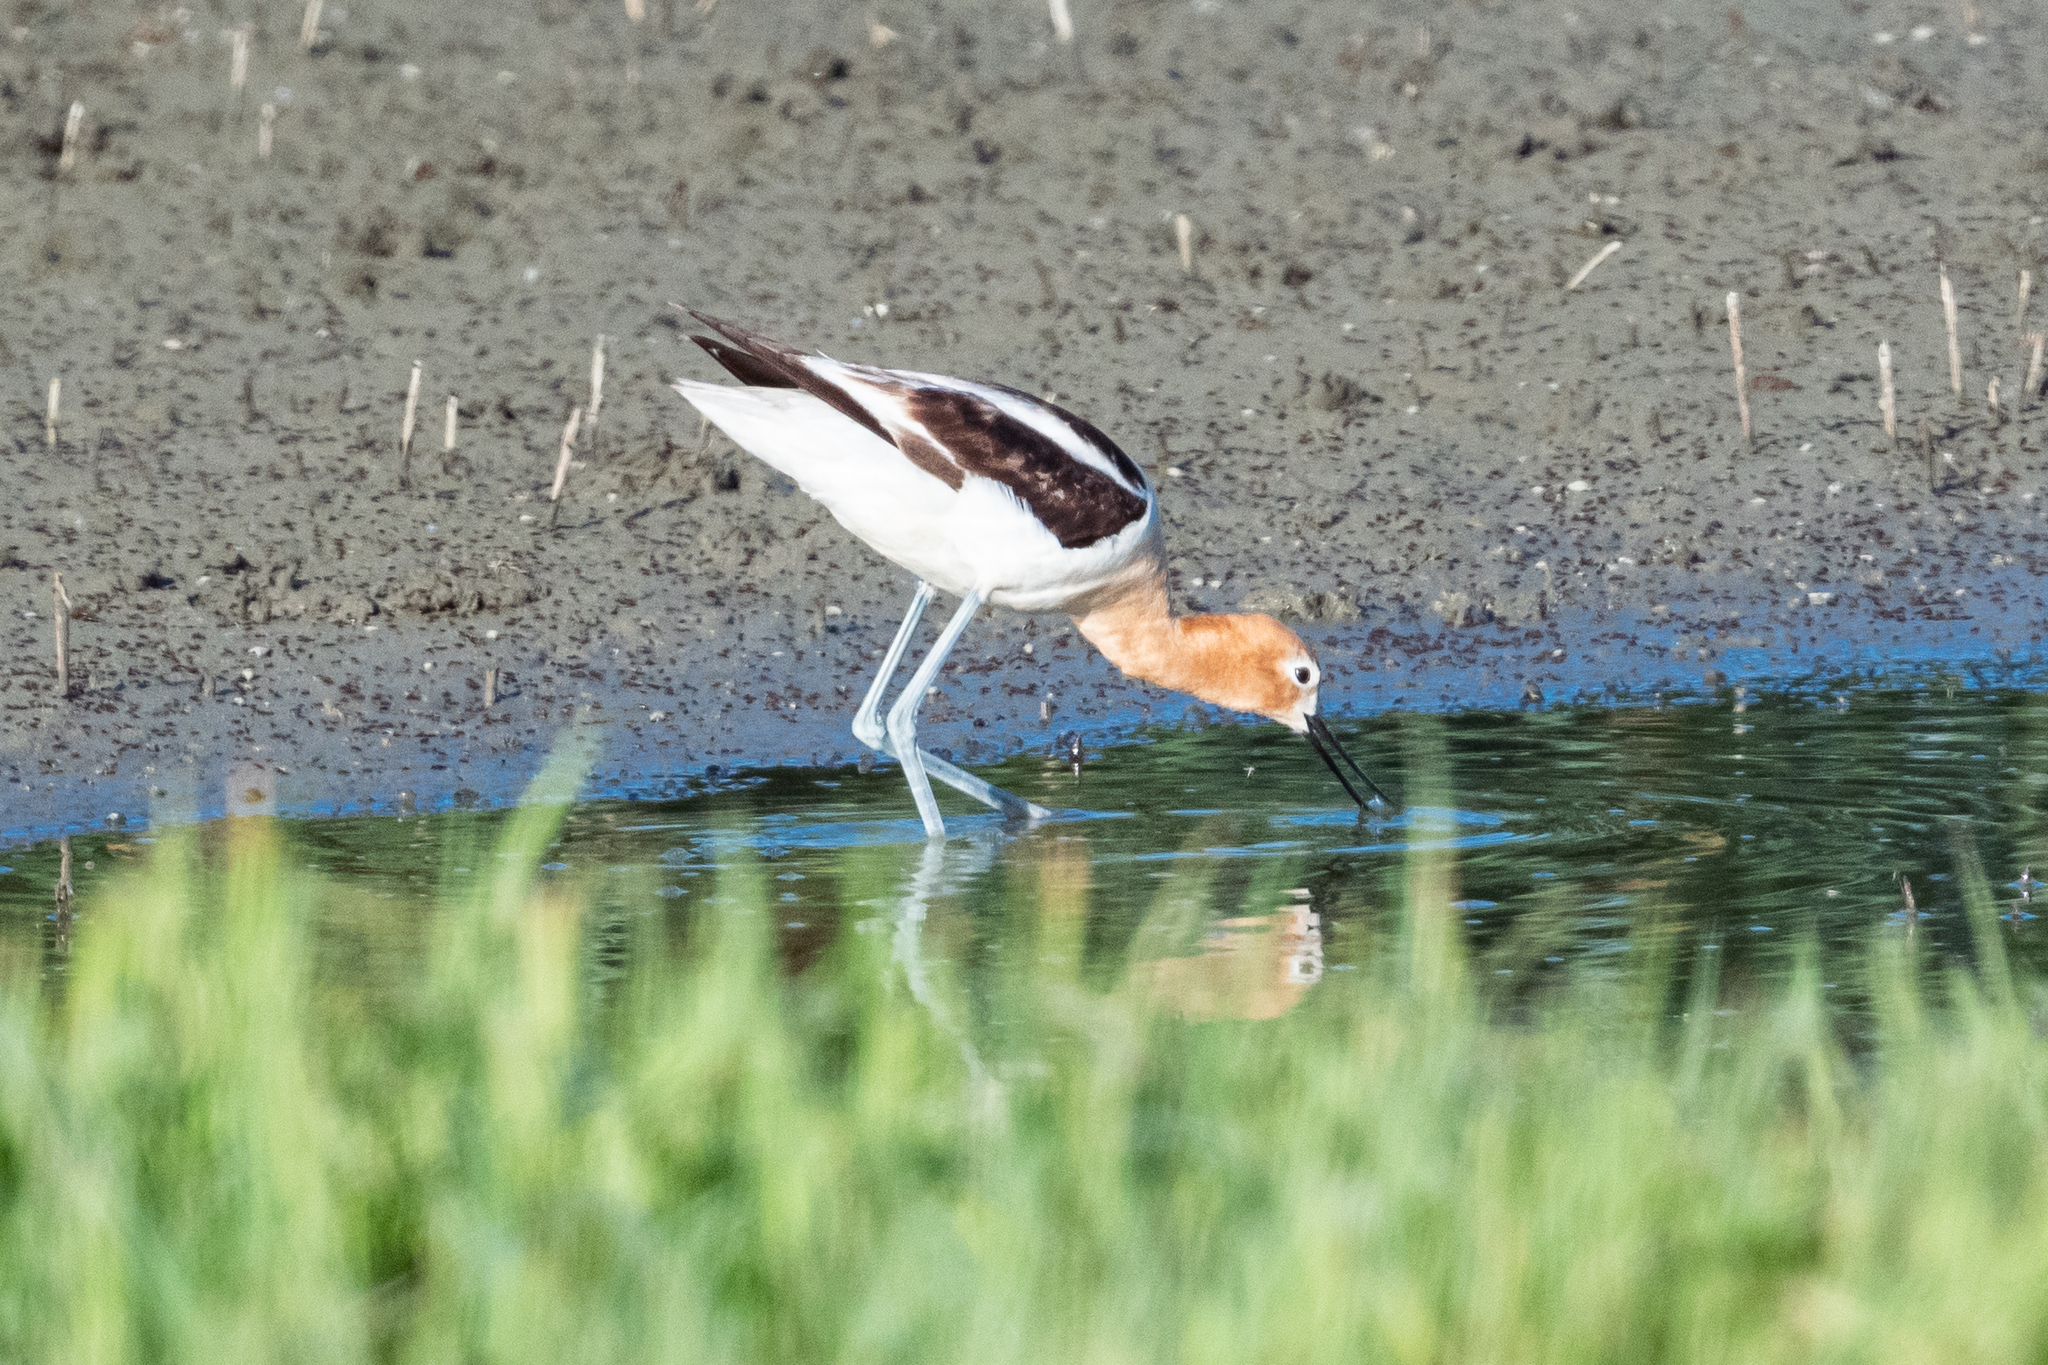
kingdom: Animalia
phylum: Chordata
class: Aves
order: Charadriiformes
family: Recurvirostridae
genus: Recurvirostra
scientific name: Recurvirostra americana
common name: American avocet
